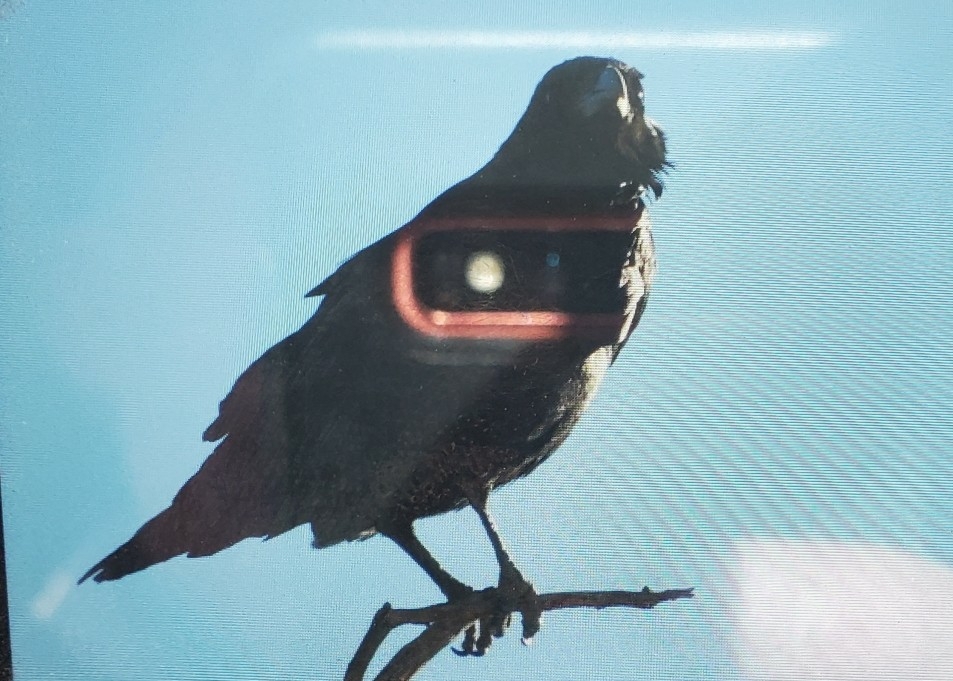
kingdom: Animalia
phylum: Chordata
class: Aves
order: Passeriformes
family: Corvidae
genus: Corvus
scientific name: Corvus corax
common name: Common raven
